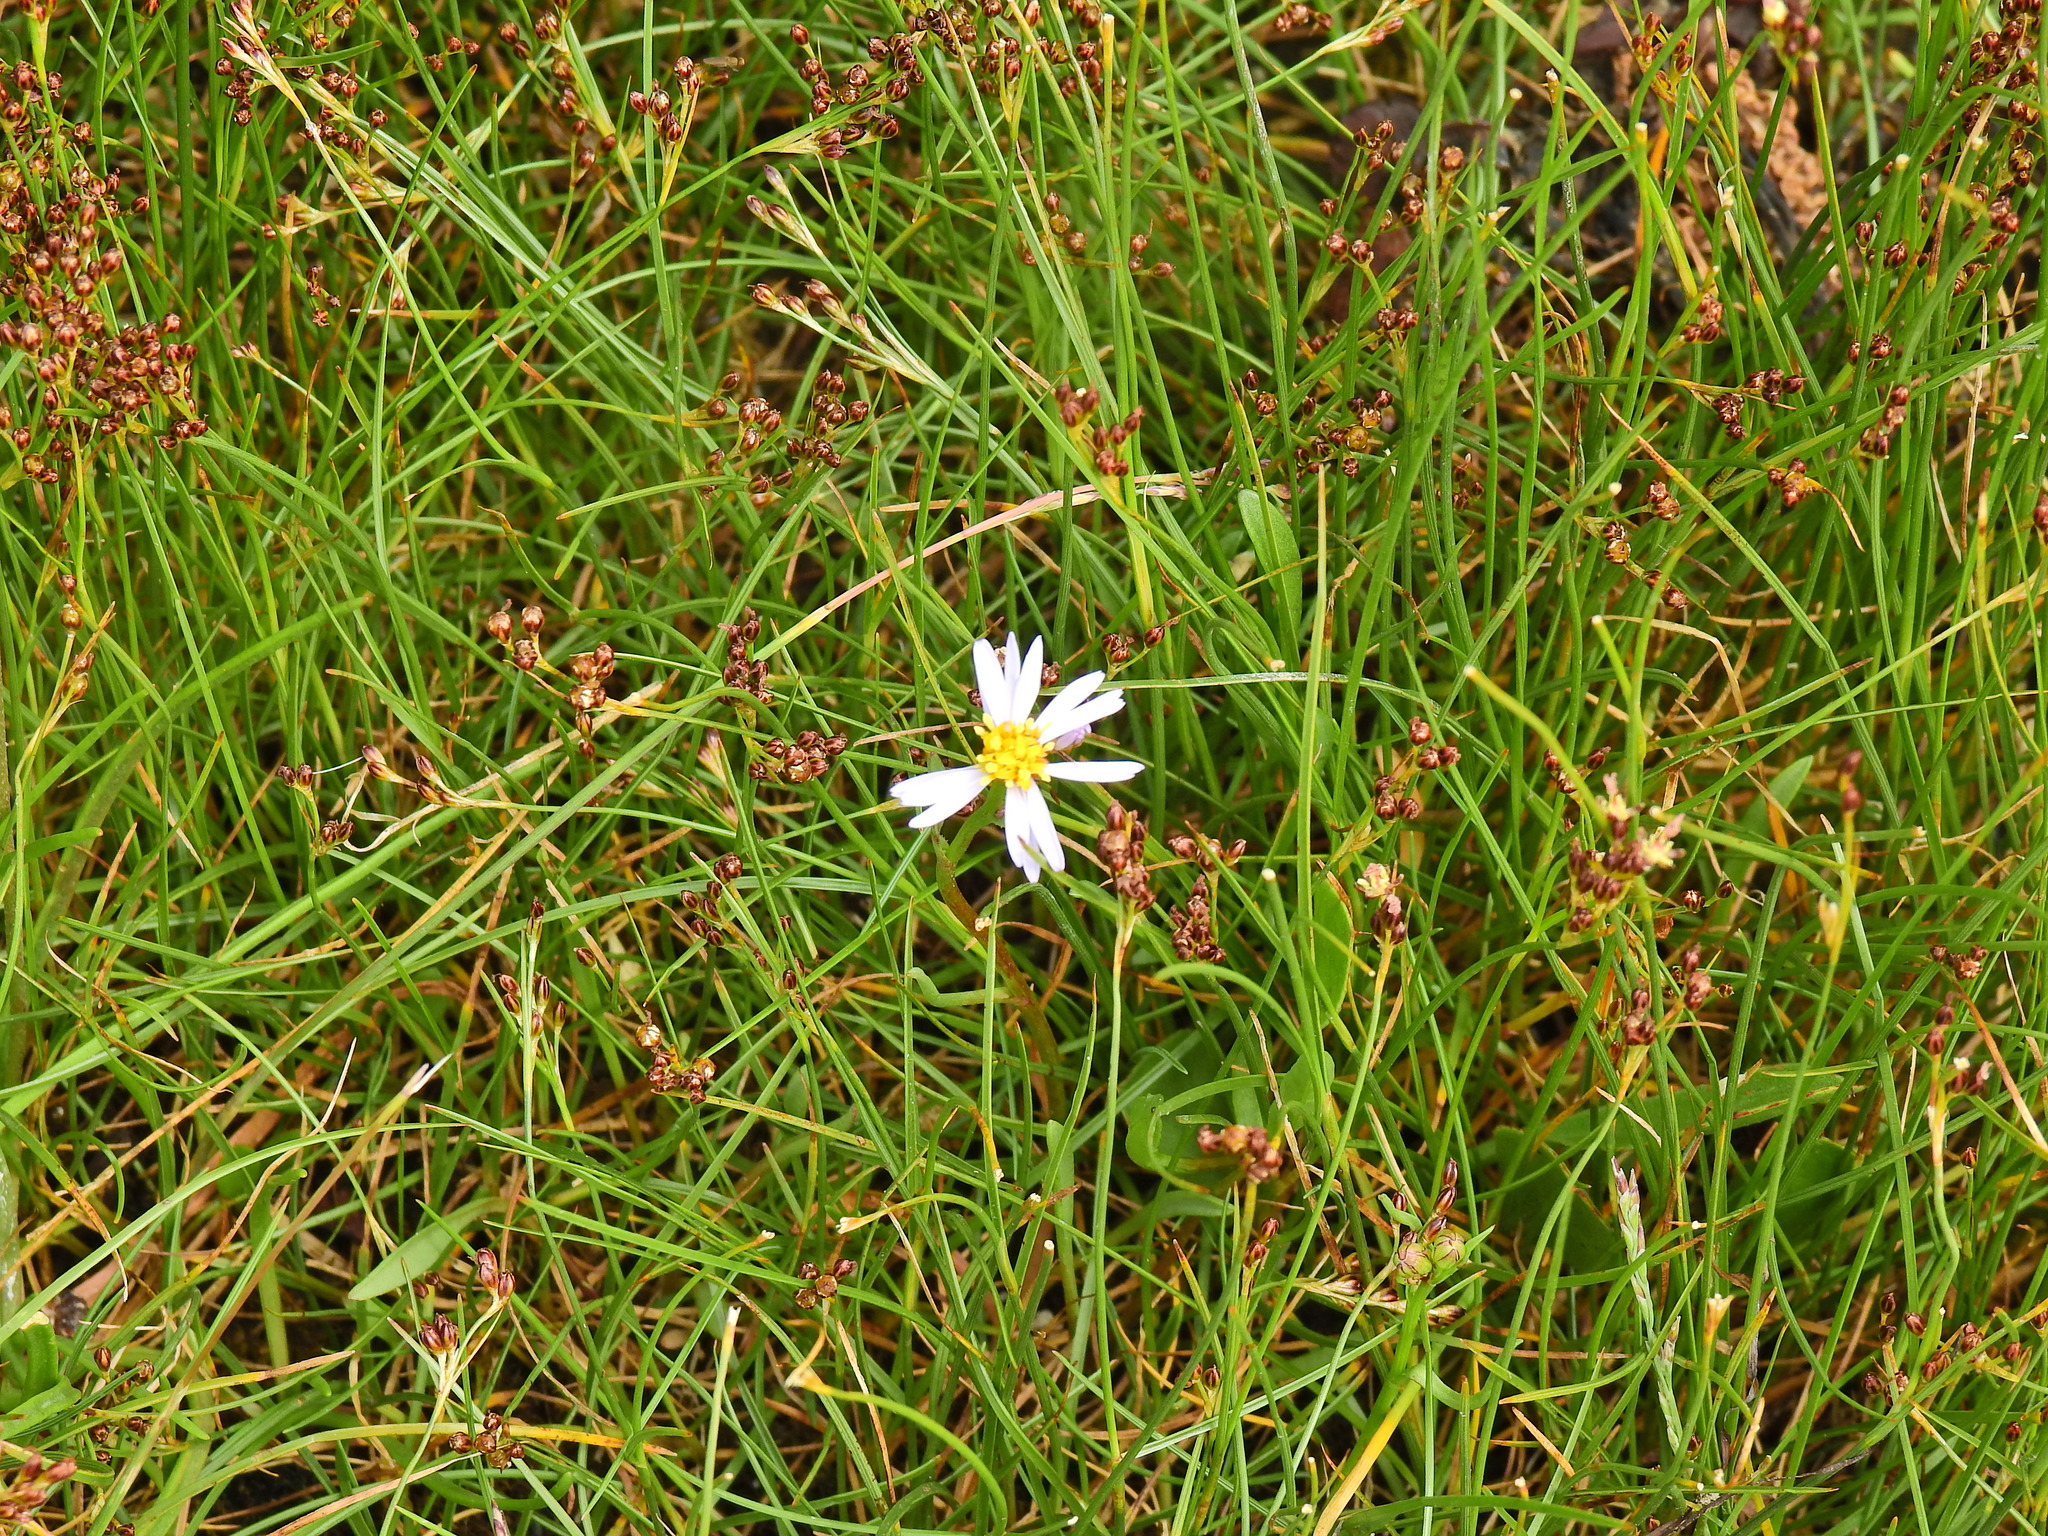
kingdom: Plantae
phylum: Tracheophyta
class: Magnoliopsida
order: Asterales
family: Asteraceae
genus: Tripolium
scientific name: Tripolium pannonicum
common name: Sea aster
